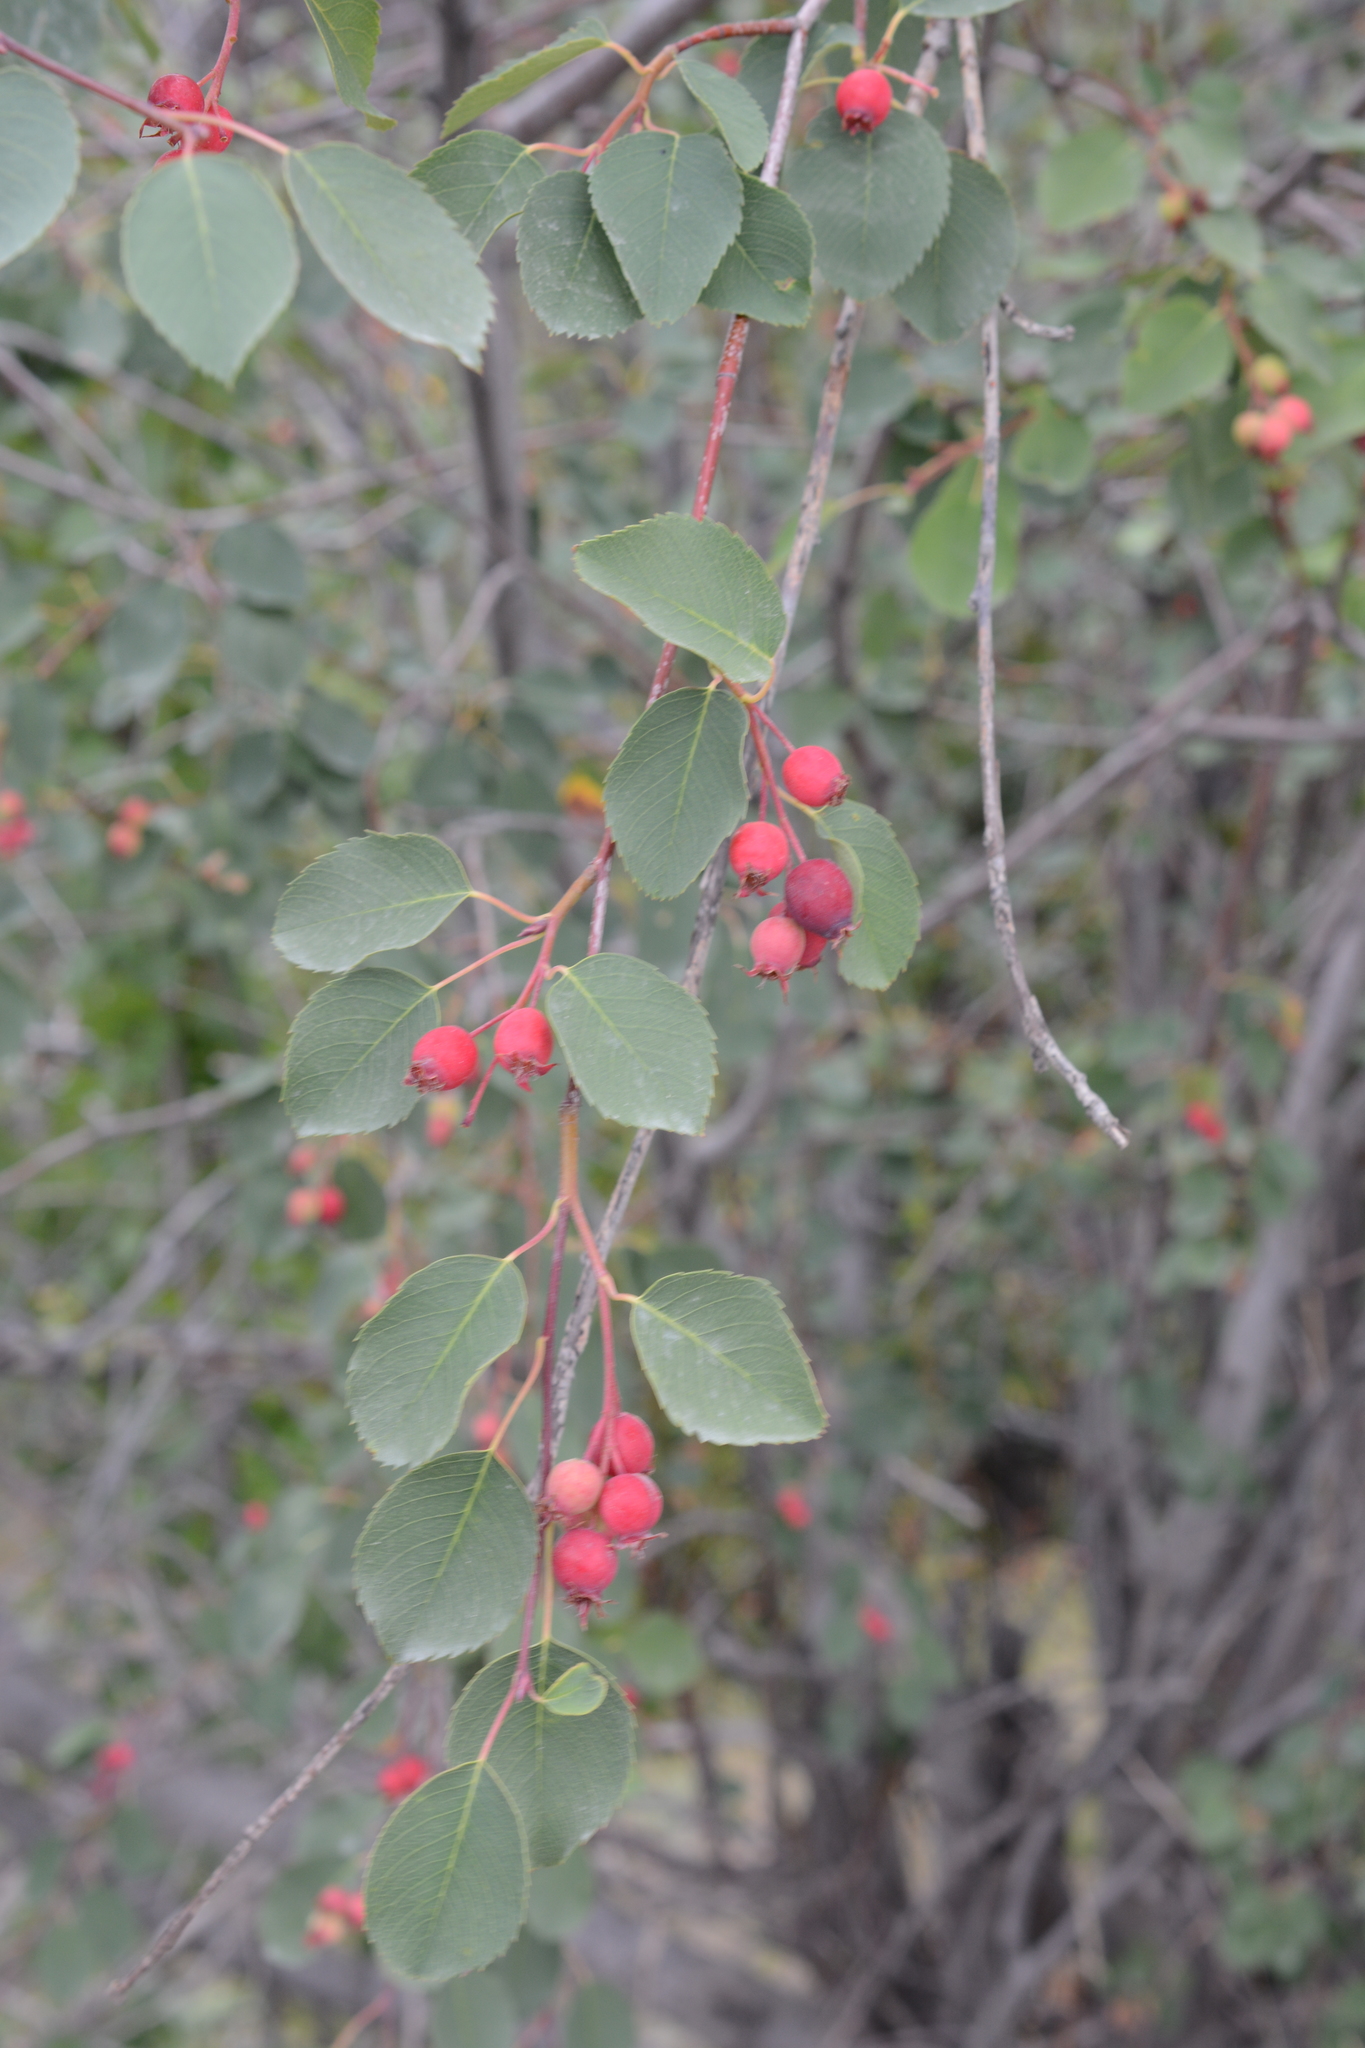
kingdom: Plantae
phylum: Tracheophyta
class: Magnoliopsida
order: Rosales
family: Rosaceae
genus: Amelanchier
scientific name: Amelanchier alnifolia
